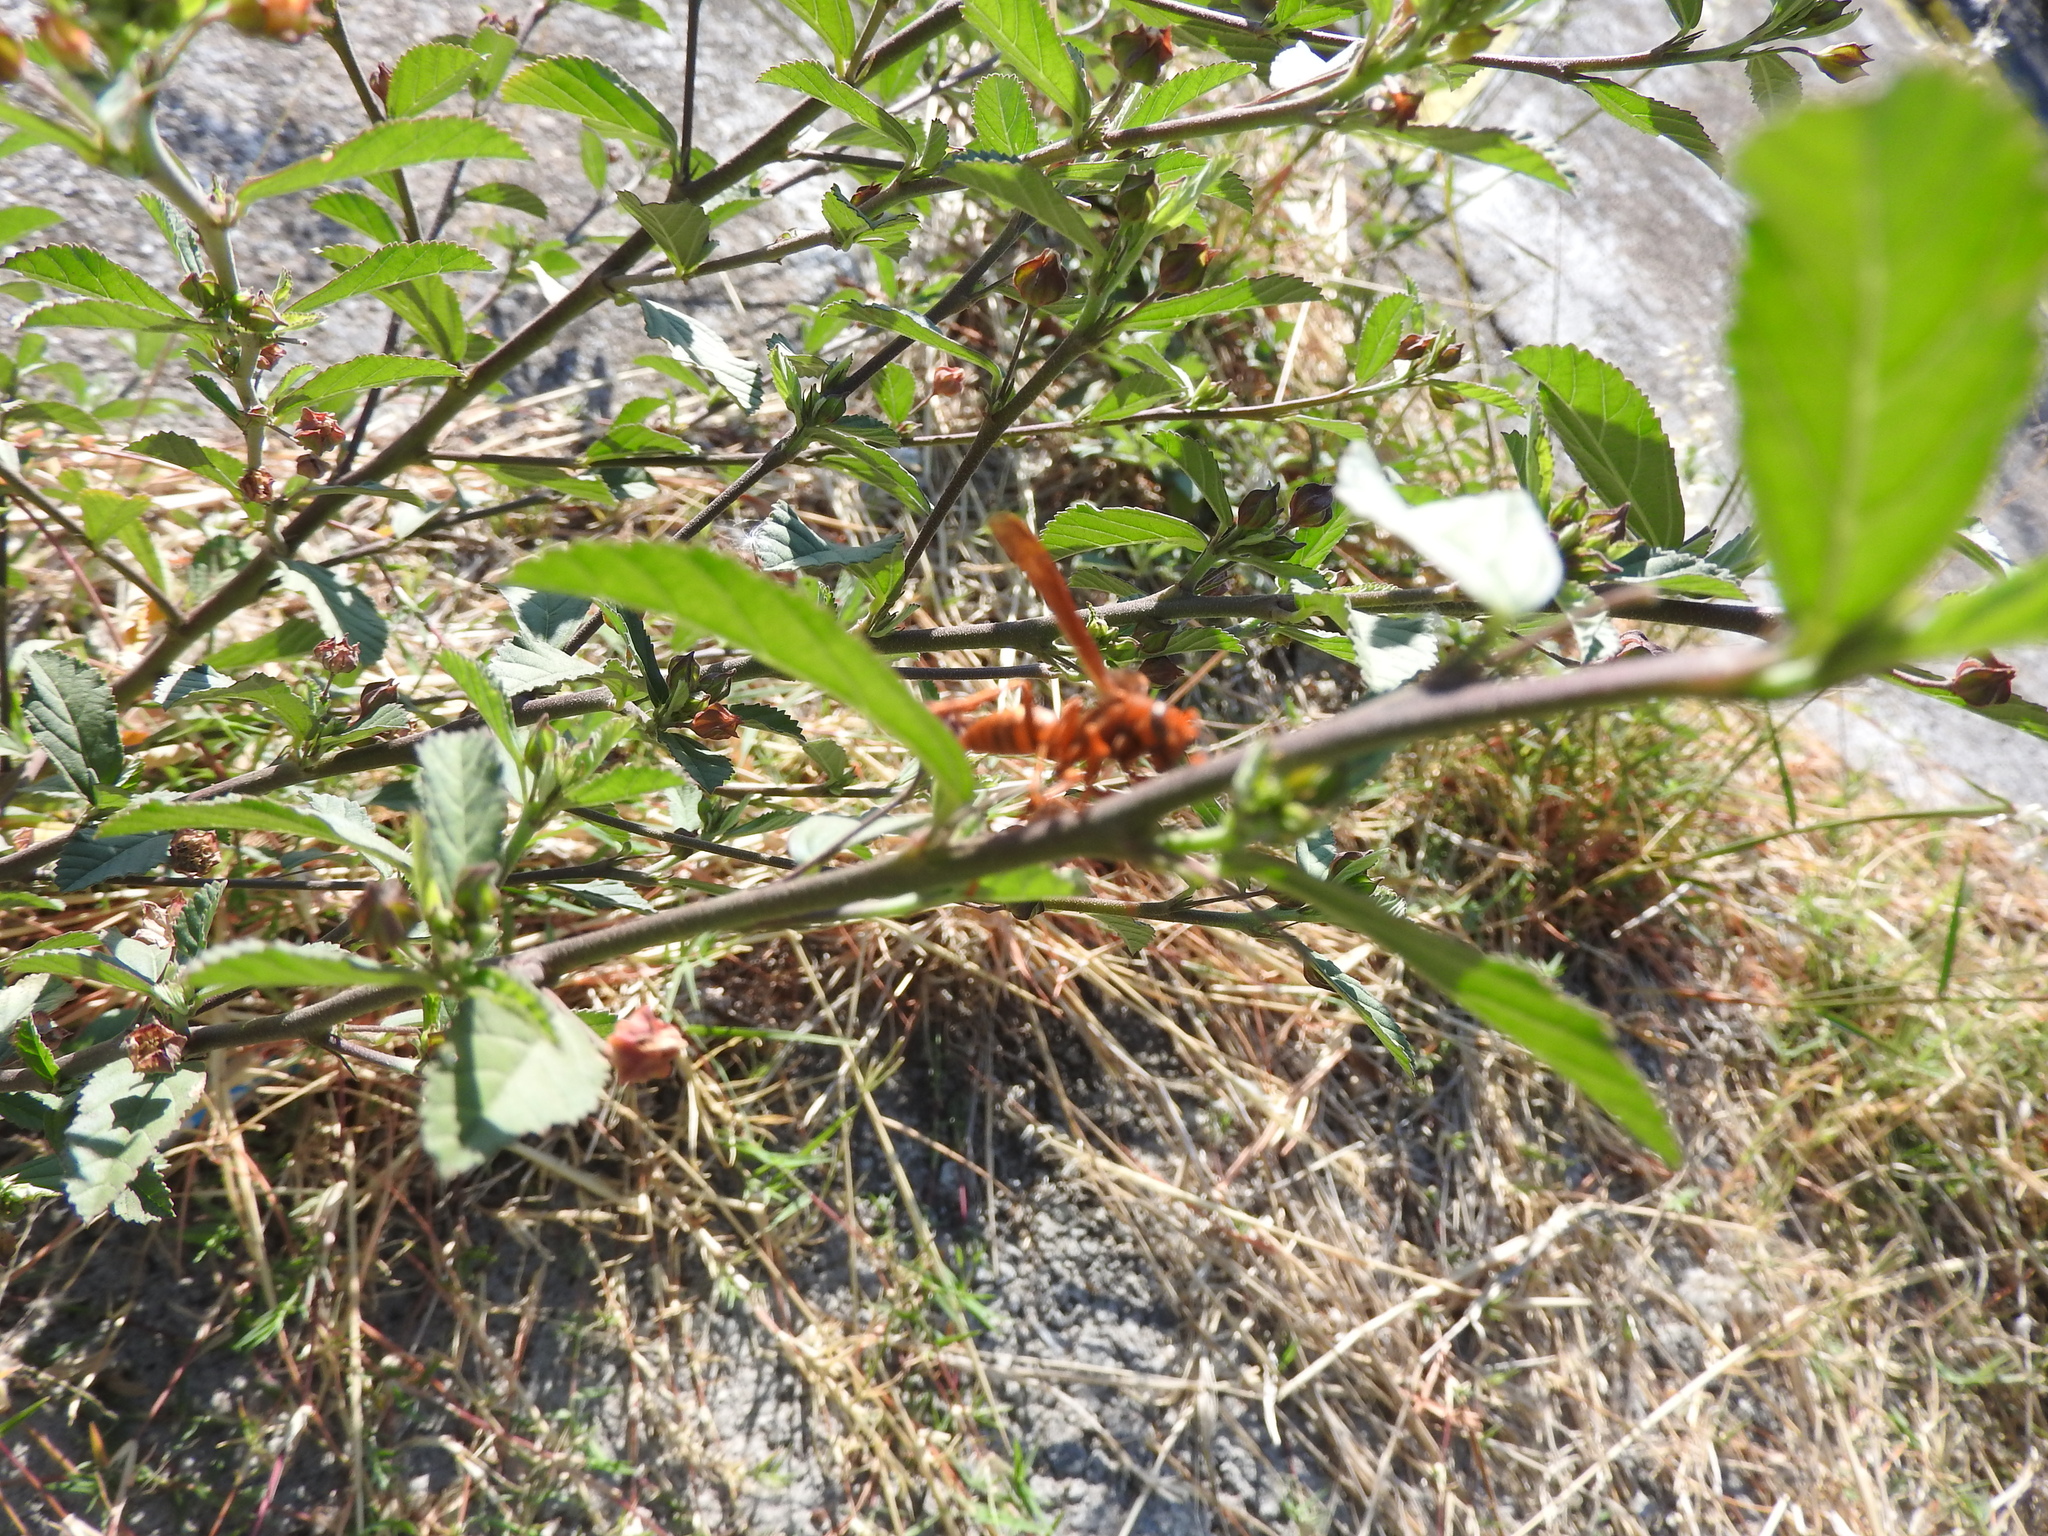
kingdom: Animalia
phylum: Arthropoda
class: Insecta
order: Hymenoptera
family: Eumenidae
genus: Polistes
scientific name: Polistes canadensis
